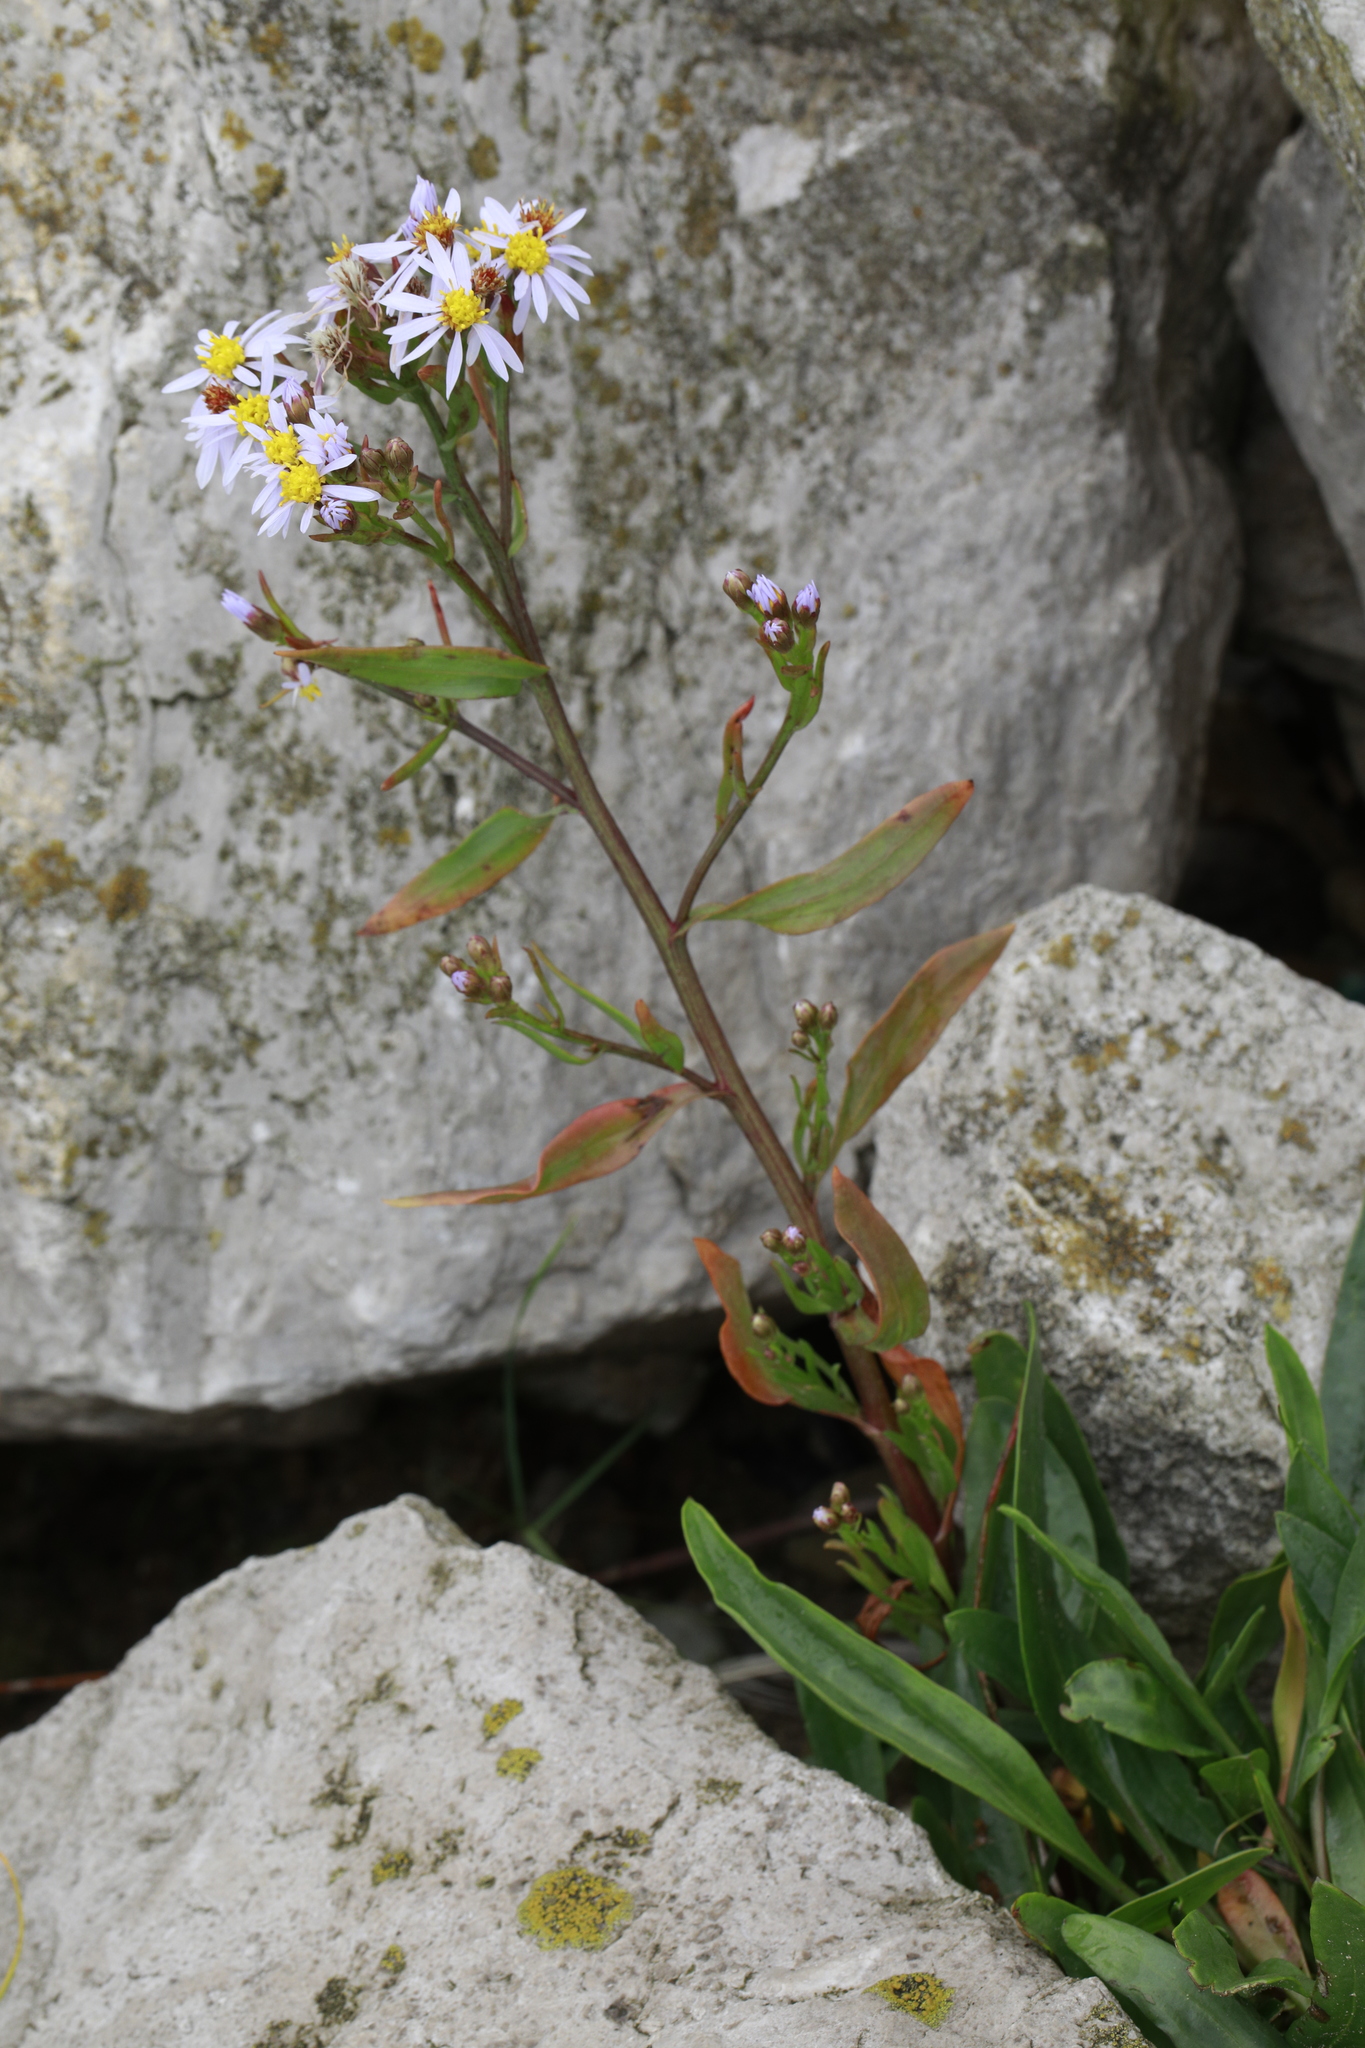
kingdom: Plantae
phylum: Tracheophyta
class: Magnoliopsida
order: Asterales
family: Asteraceae
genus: Tripolium
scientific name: Tripolium pannonicum
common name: Sea aster
